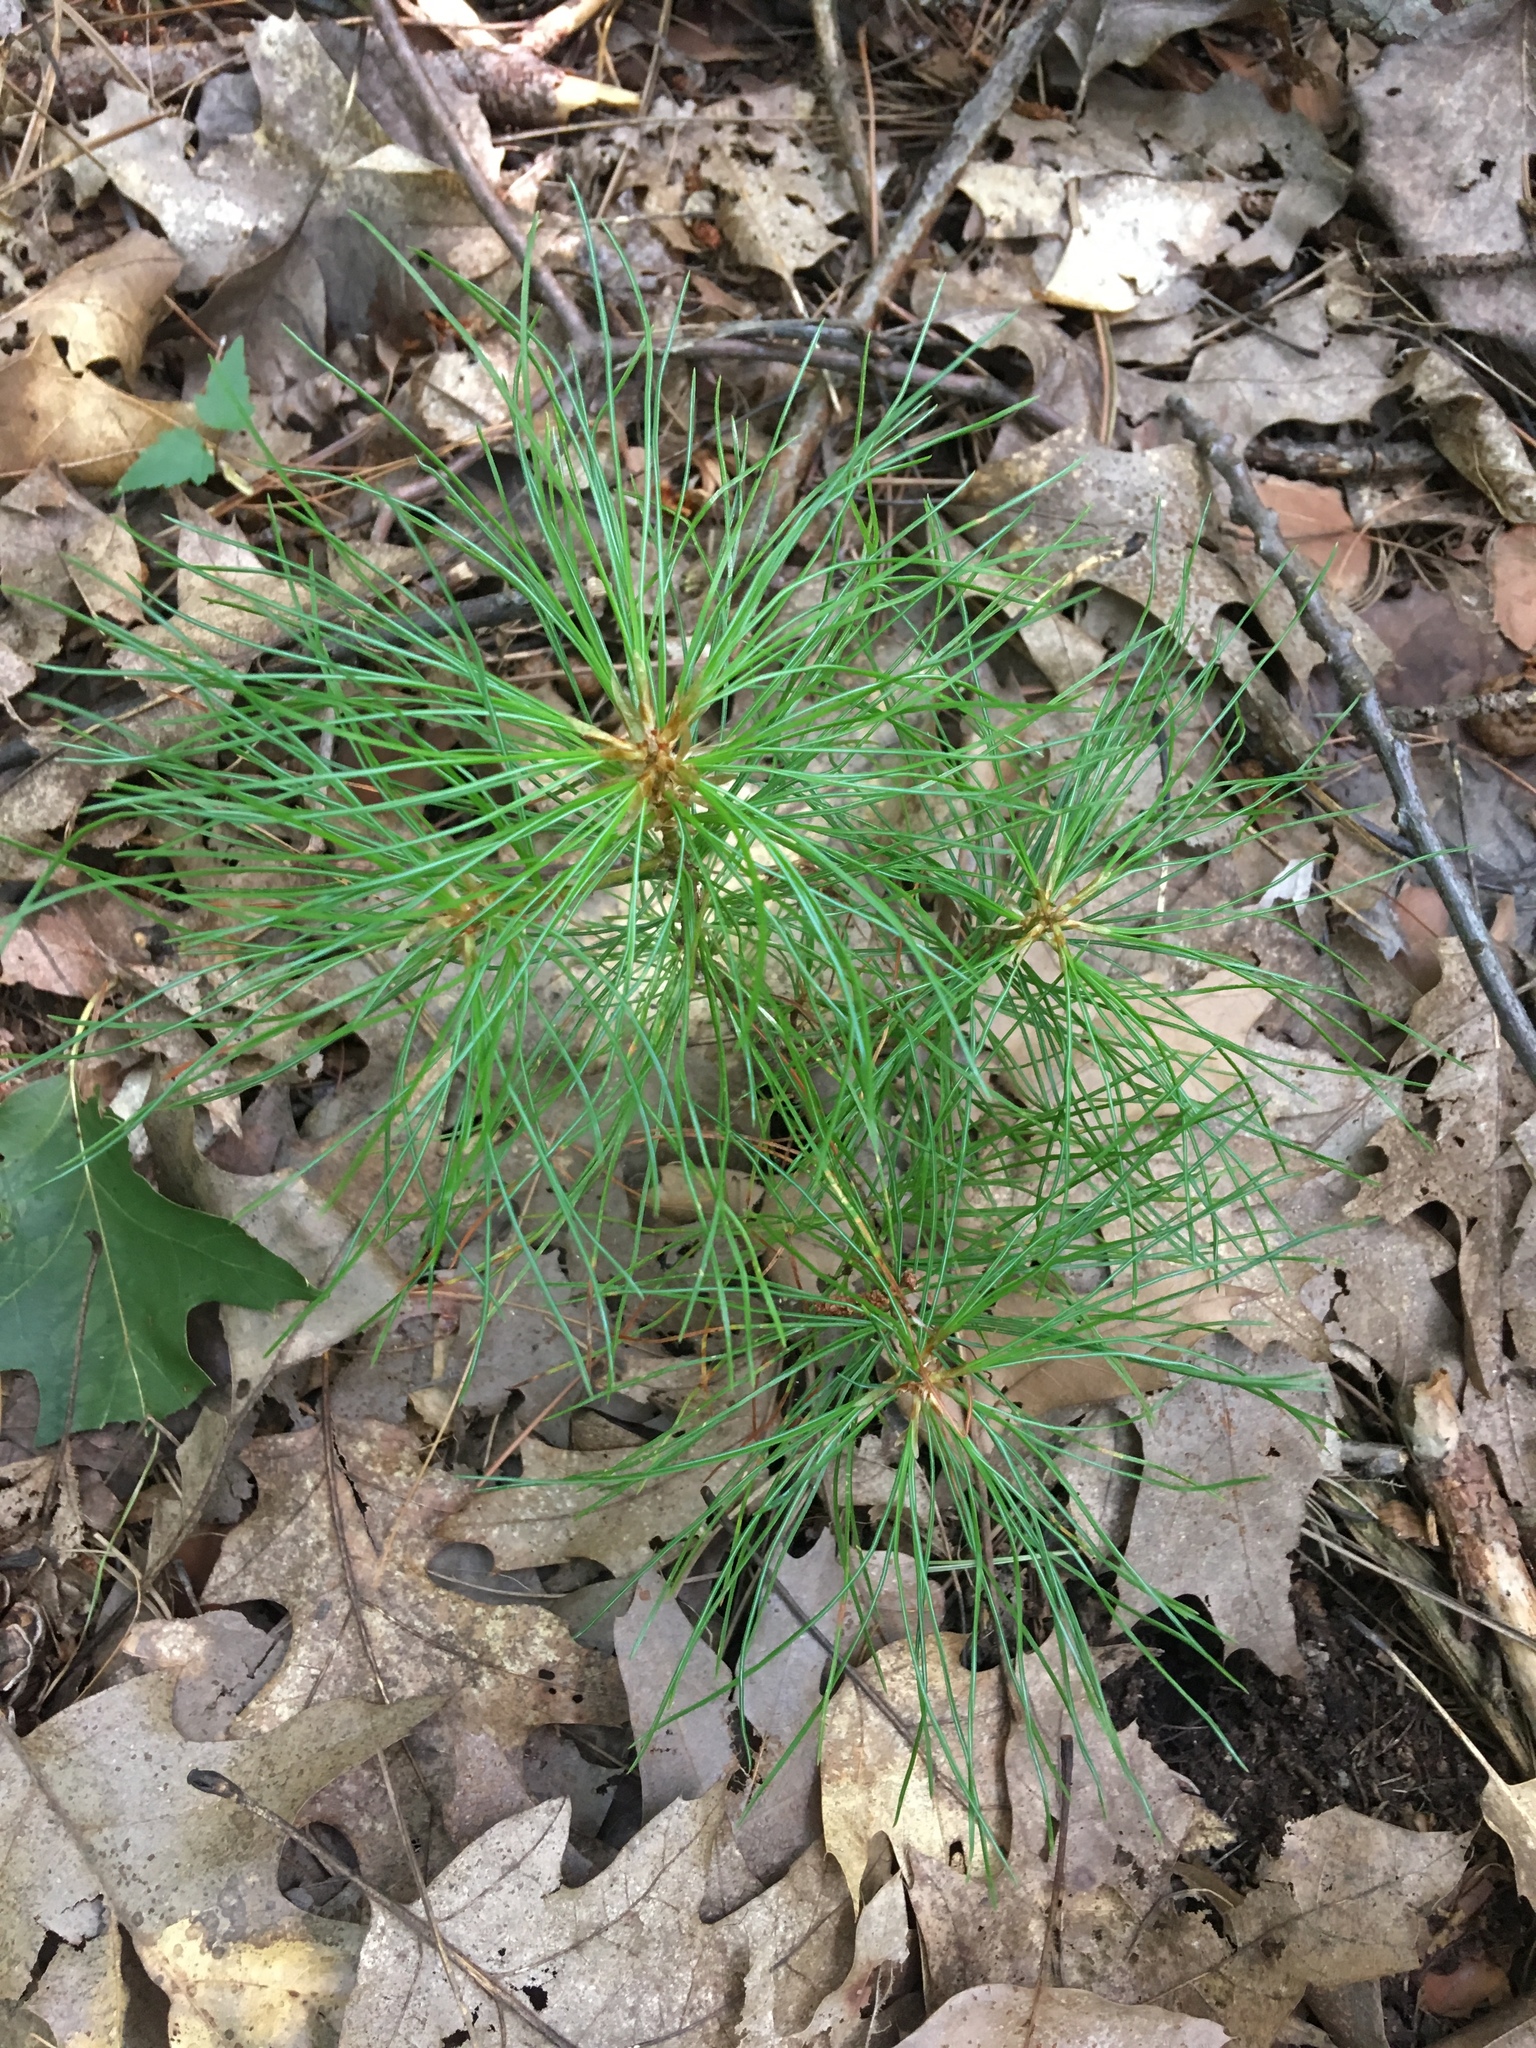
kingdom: Plantae
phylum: Tracheophyta
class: Pinopsida
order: Pinales
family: Pinaceae
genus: Pinus
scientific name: Pinus strobus
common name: Weymouth pine
